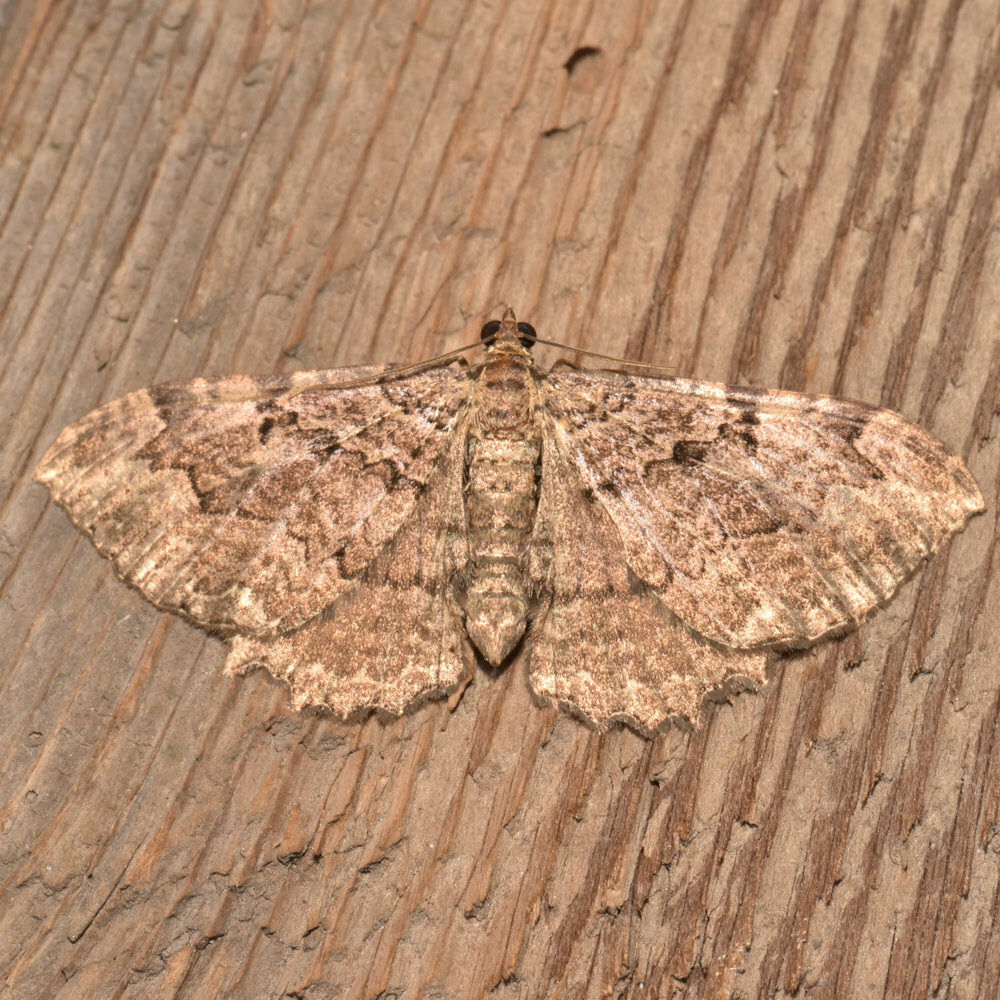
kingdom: Animalia
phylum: Arthropoda
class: Insecta
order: Lepidoptera
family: Geometridae
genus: Rheumaptera
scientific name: Rheumaptera
